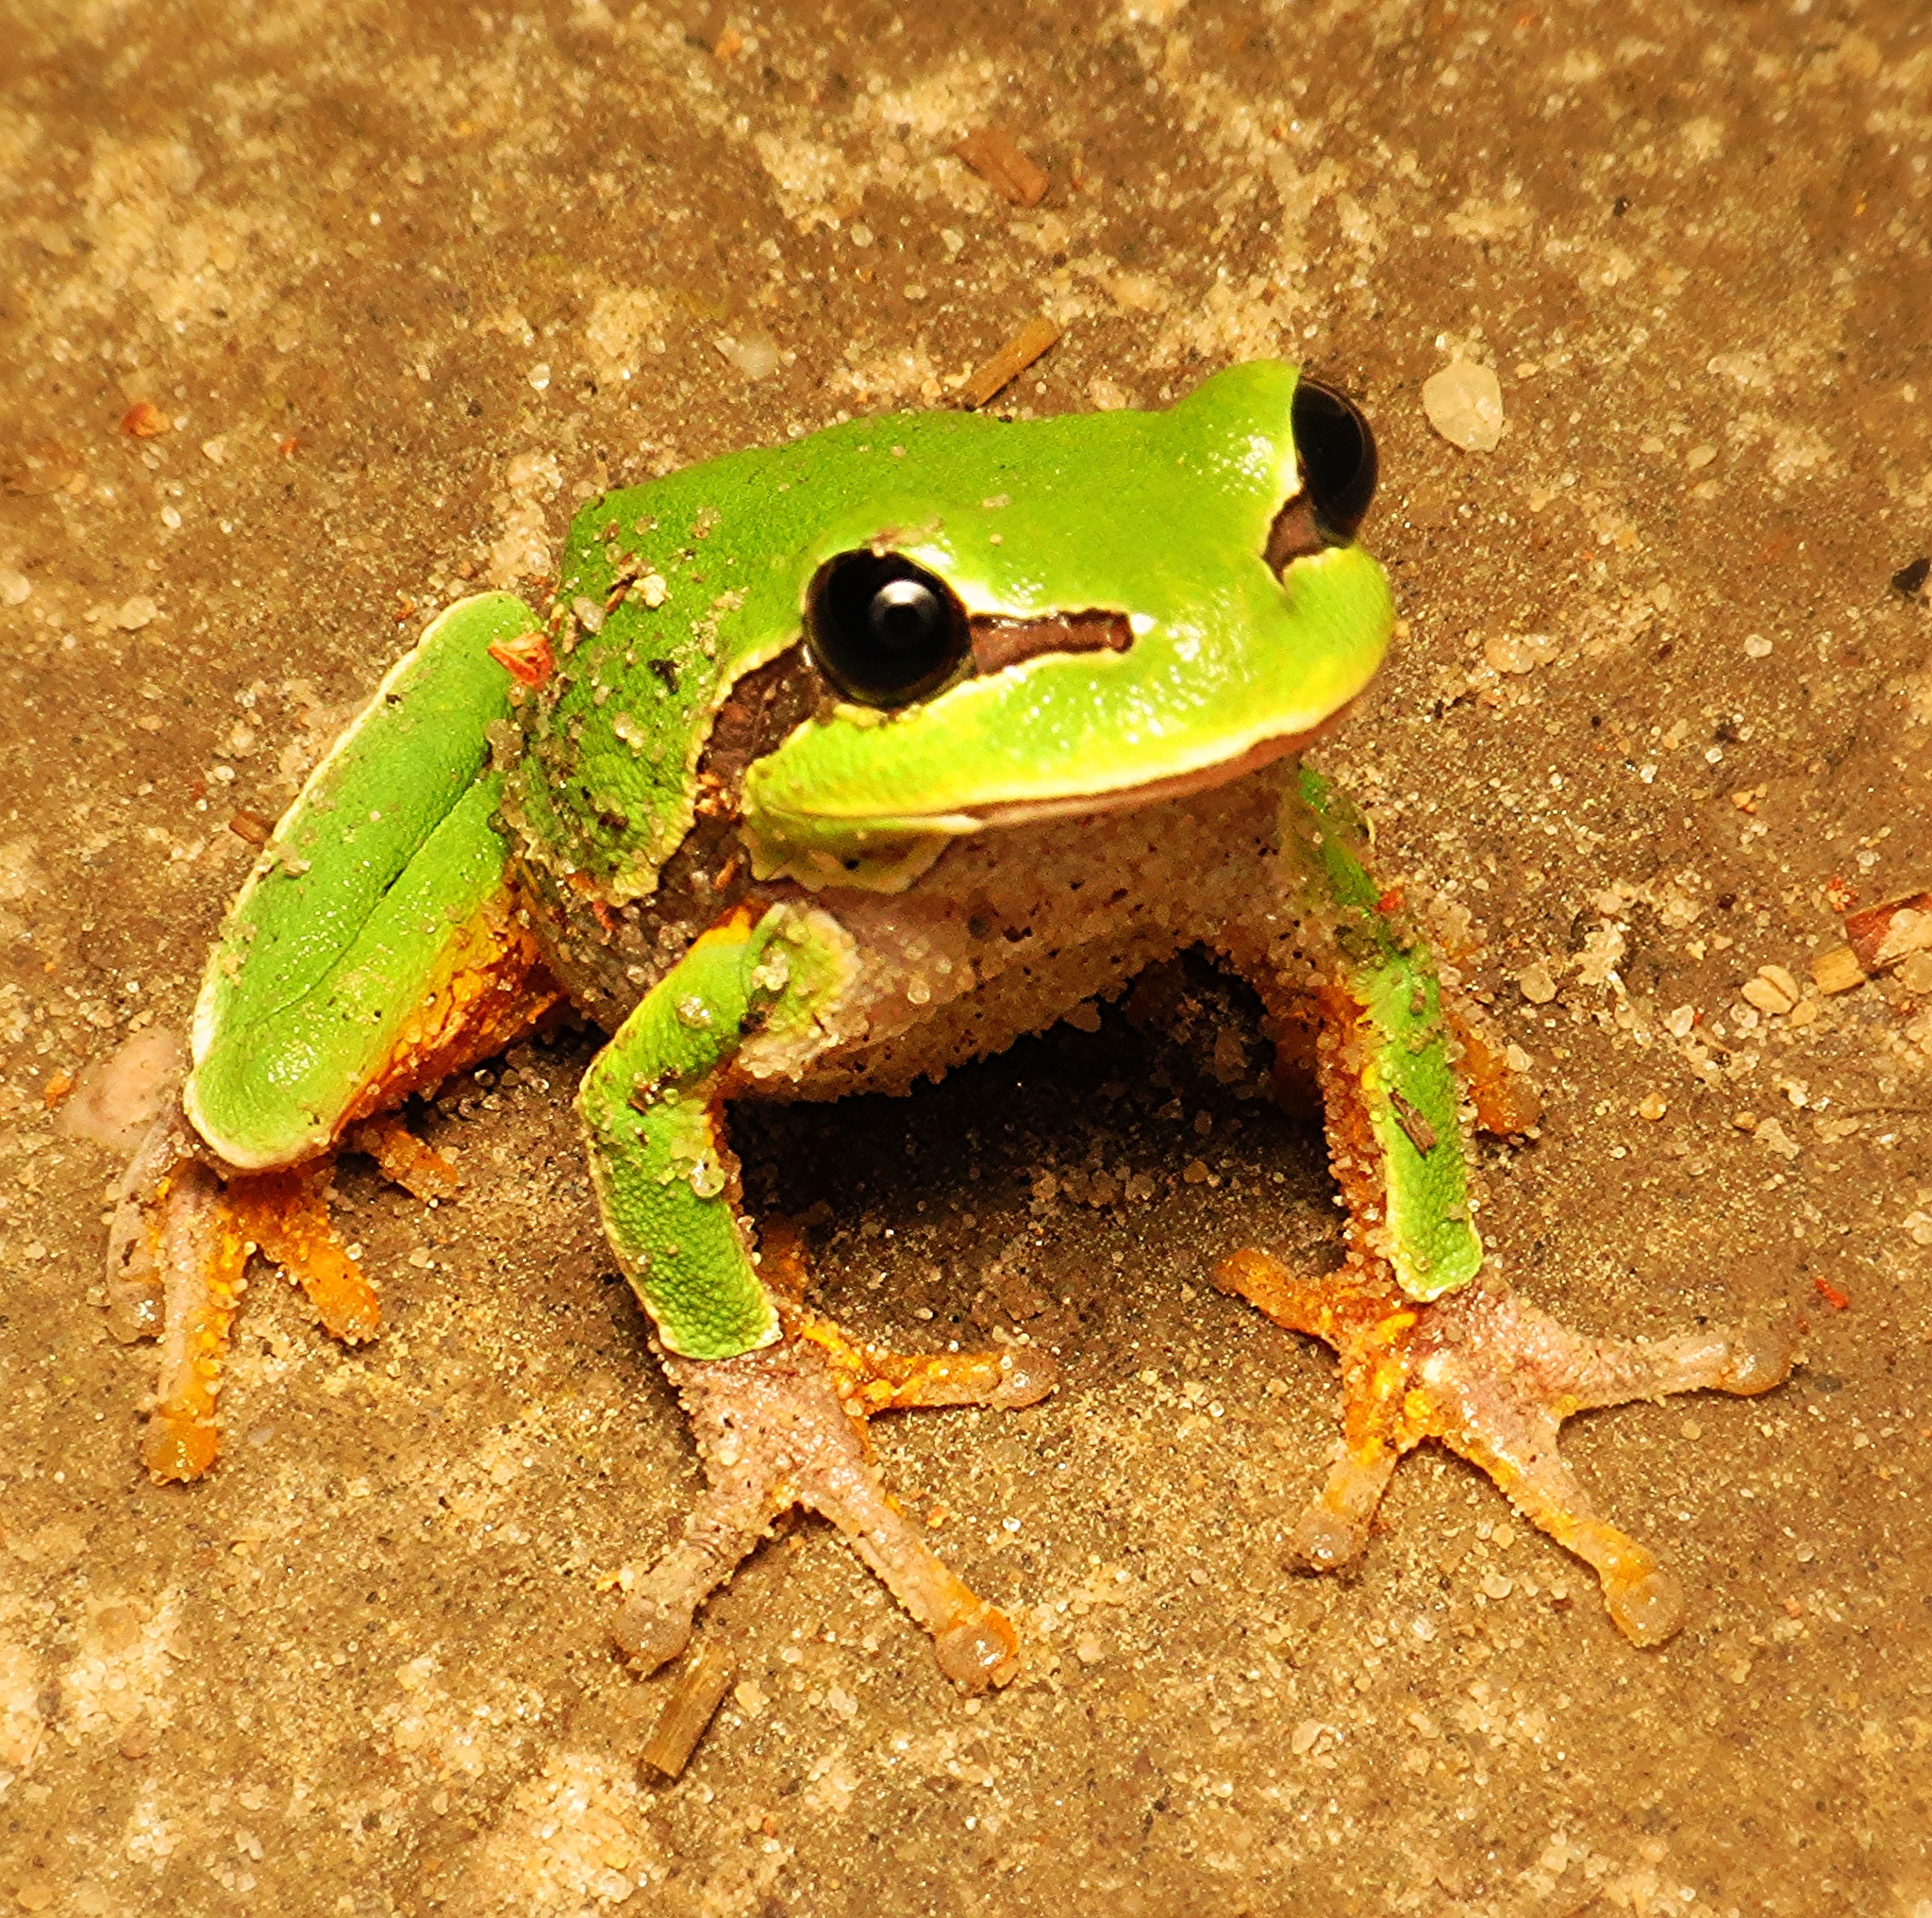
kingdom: Animalia
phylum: Chordata
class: Amphibia
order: Anura
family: Hylidae
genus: Dryophytes
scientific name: Dryophytes andersonii
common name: Pine barrens treefrog
